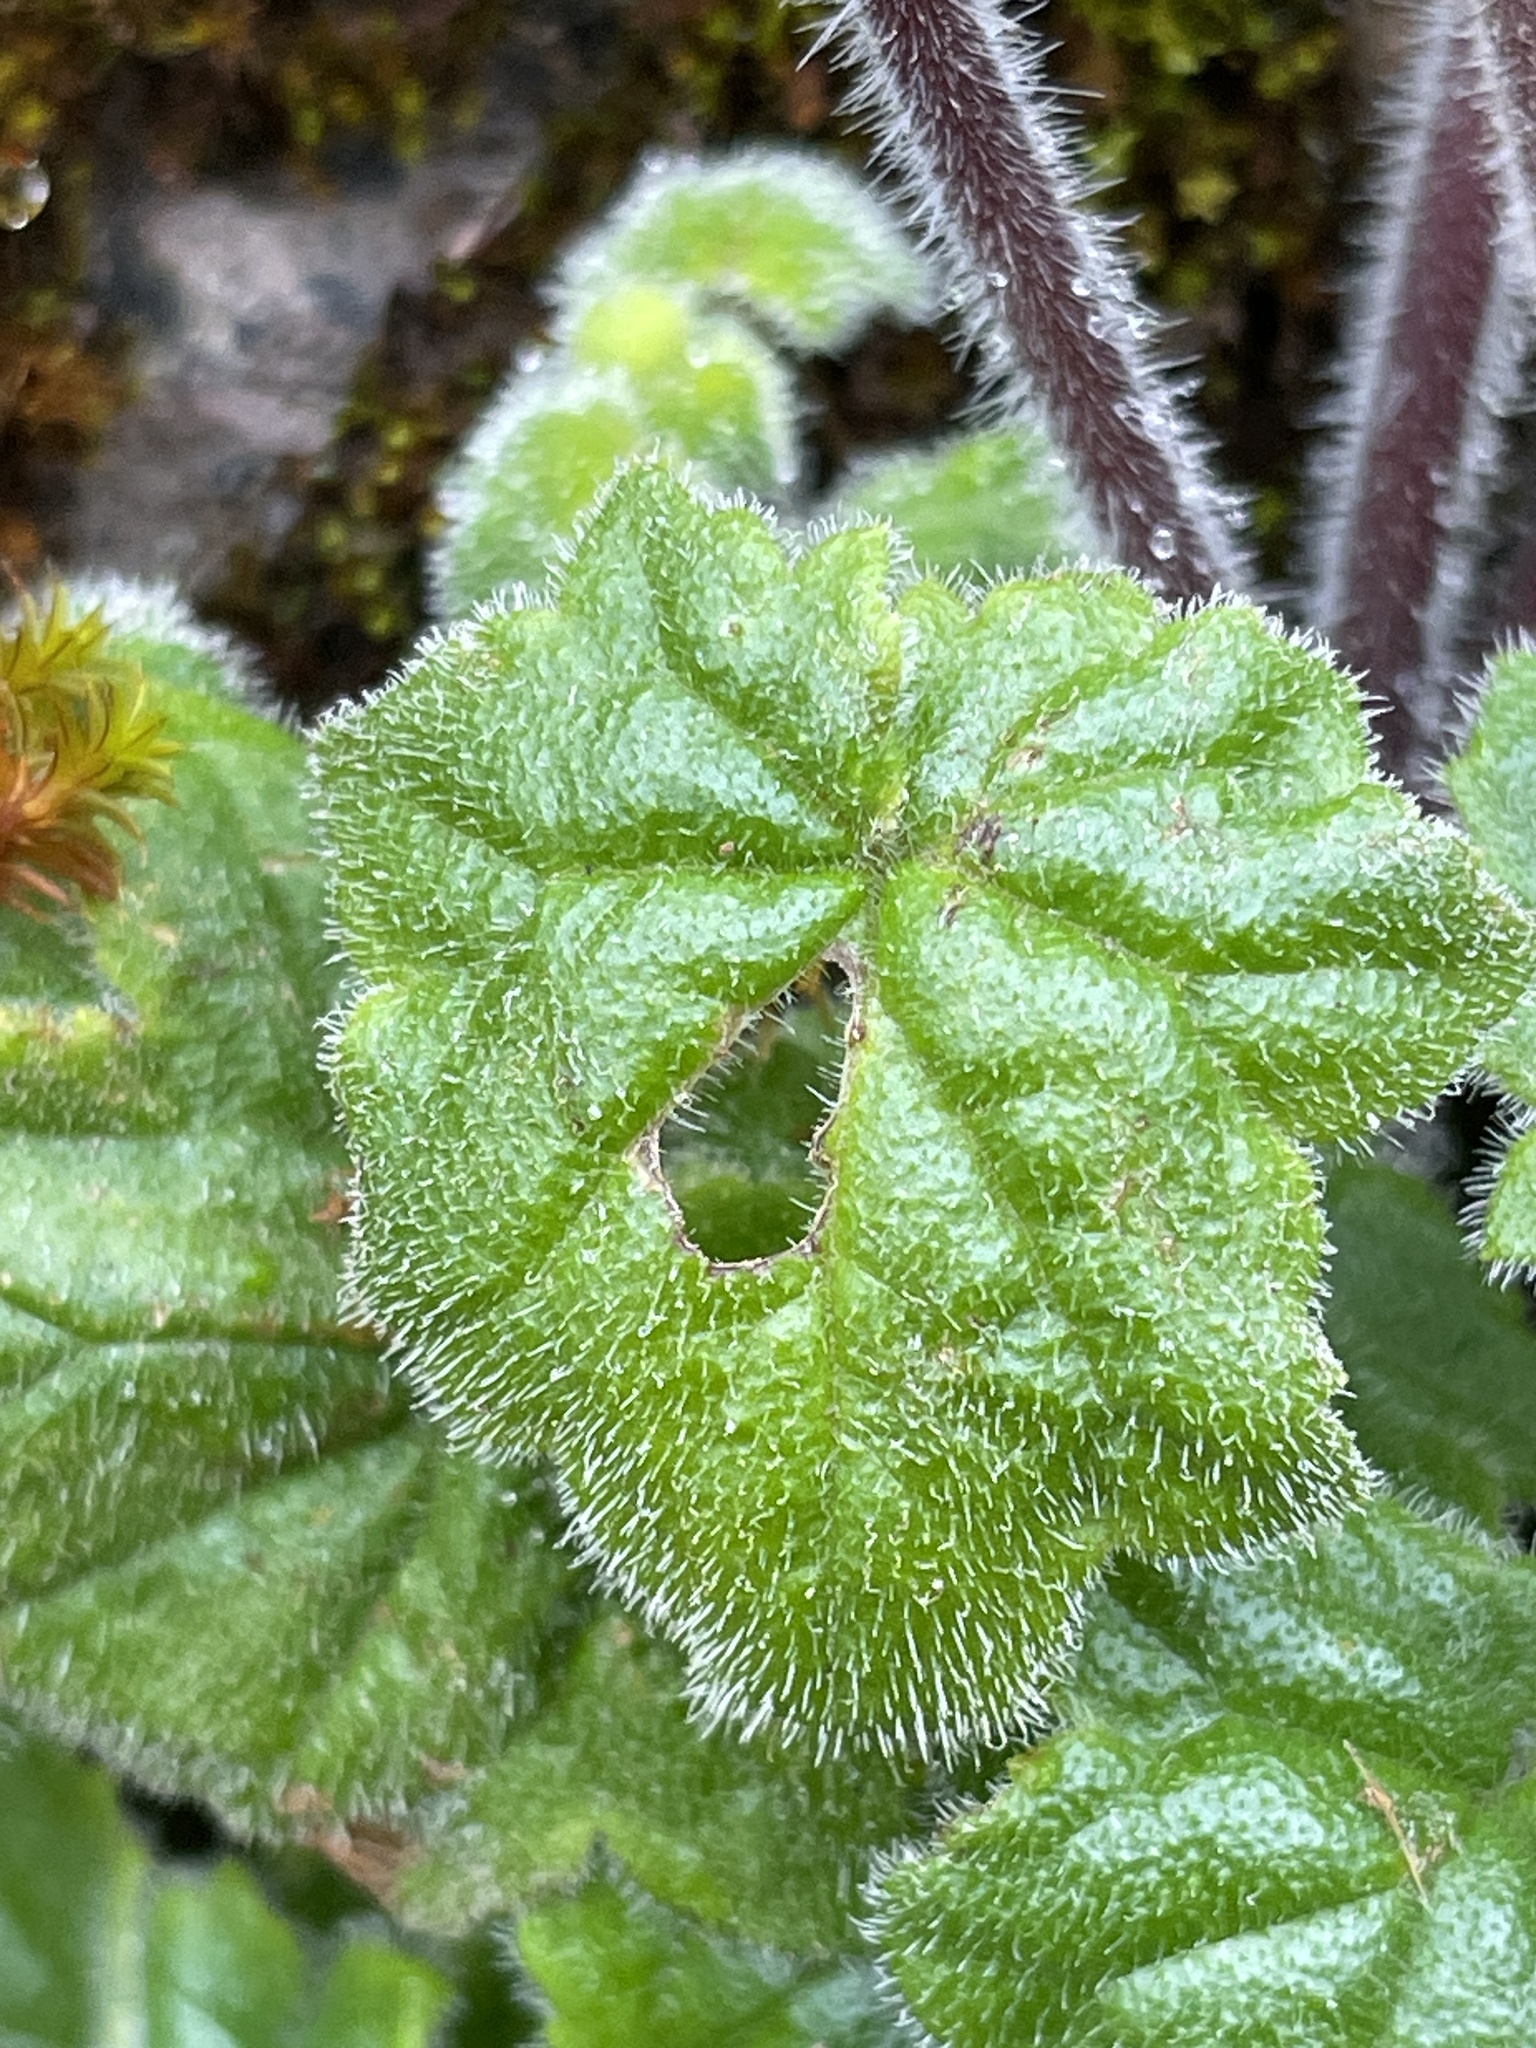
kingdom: Plantae
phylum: Tracheophyta
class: Magnoliopsida
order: Lamiales
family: Calceolariaceae
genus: Calceolaria
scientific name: Calceolaria lobata
